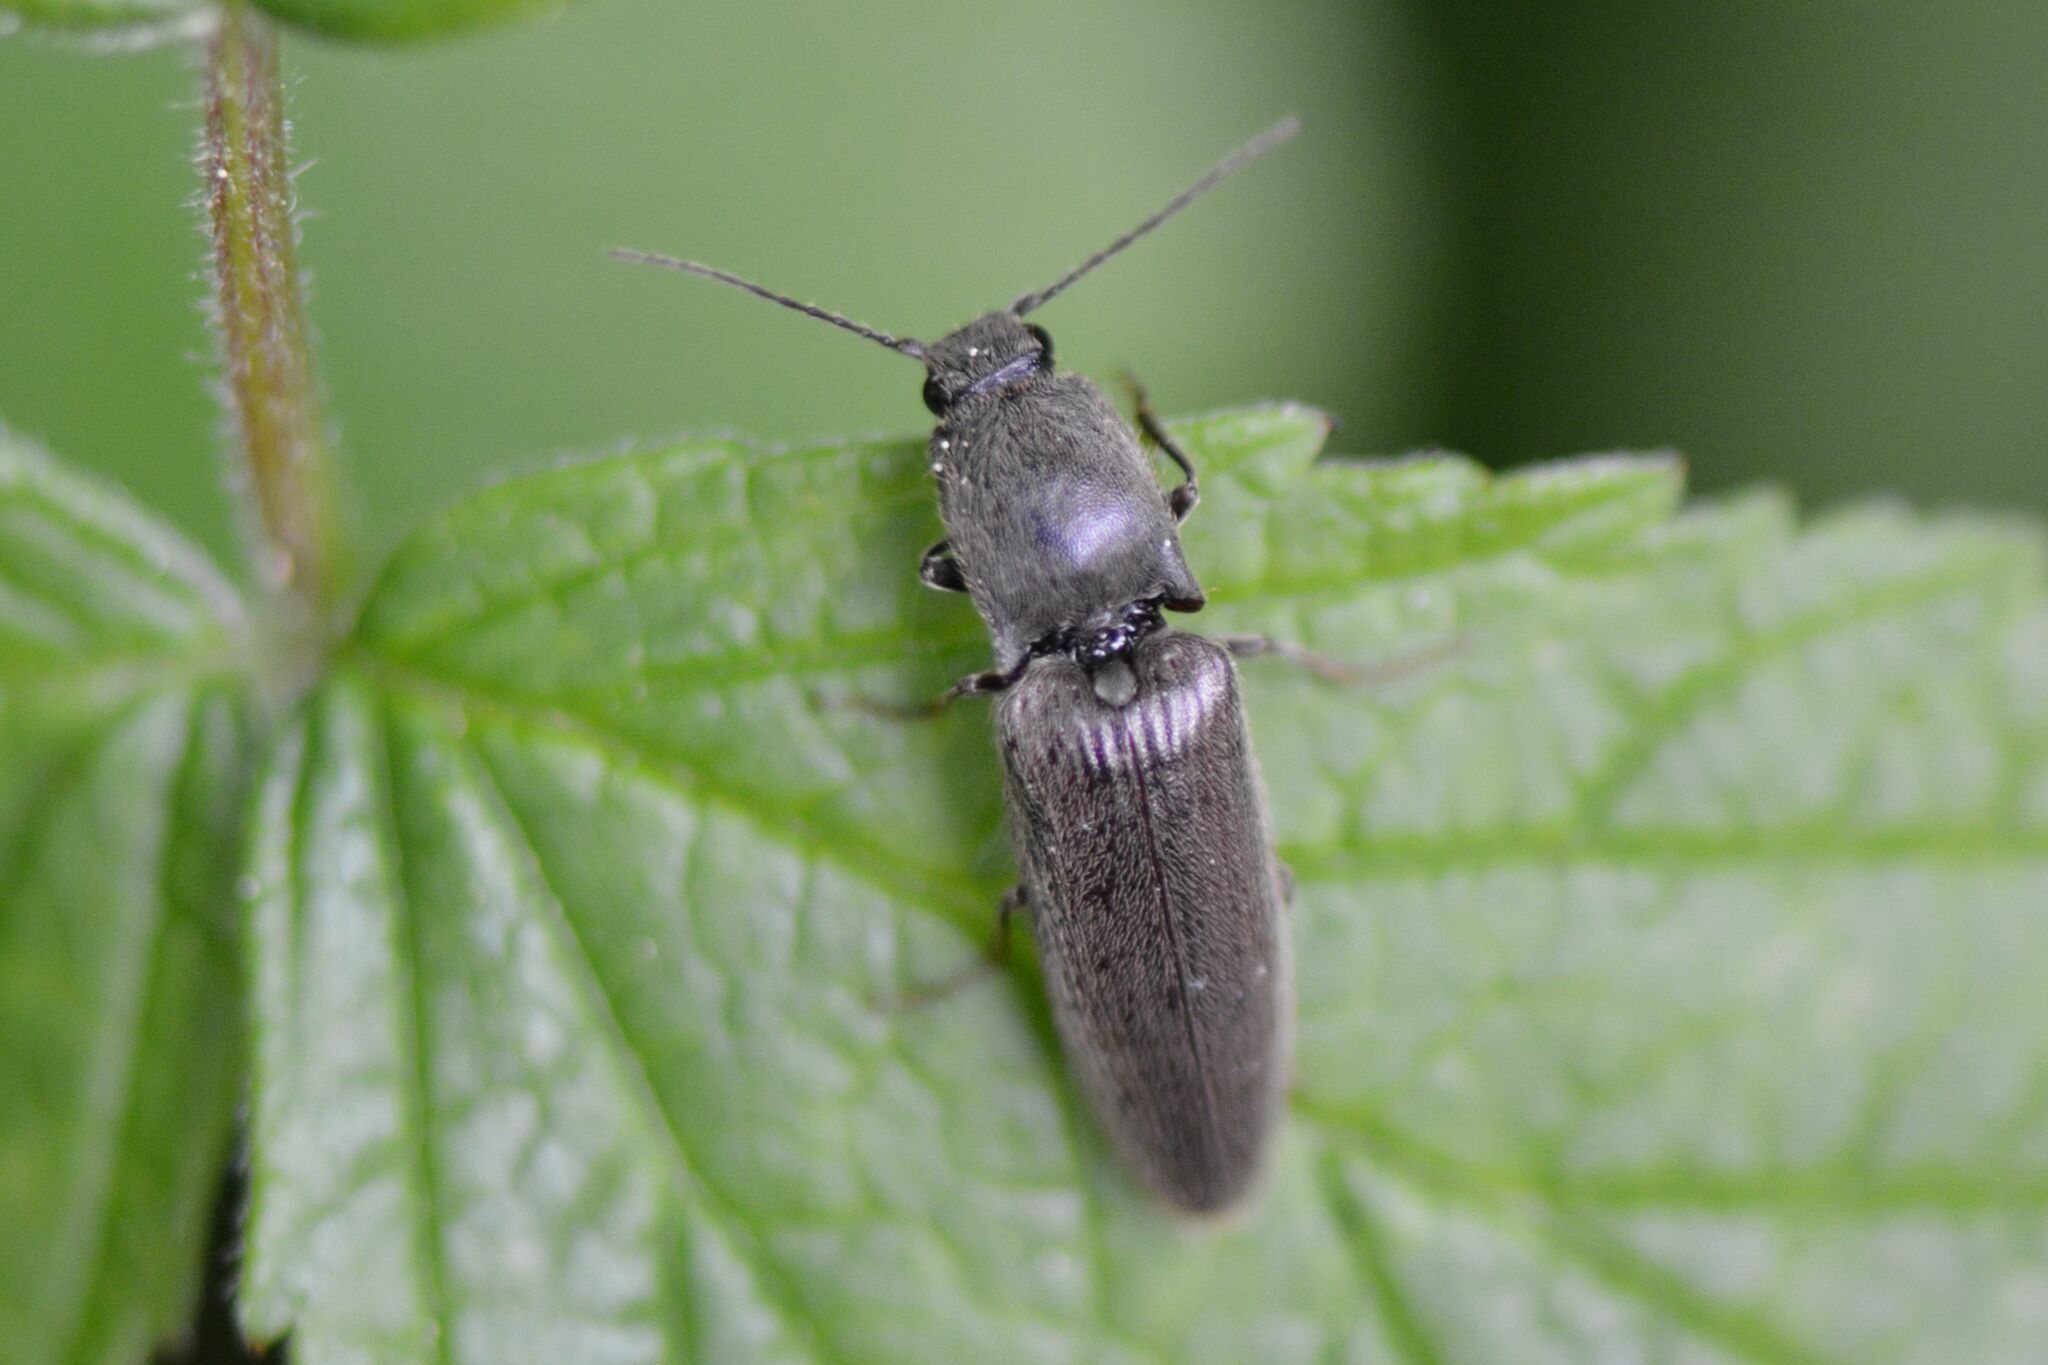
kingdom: Animalia
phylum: Arthropoda
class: Insecta
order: Coleoptera
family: Elateridae
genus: Athous
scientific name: Athous haemorrhoidalis
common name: Red-brown click beetle
